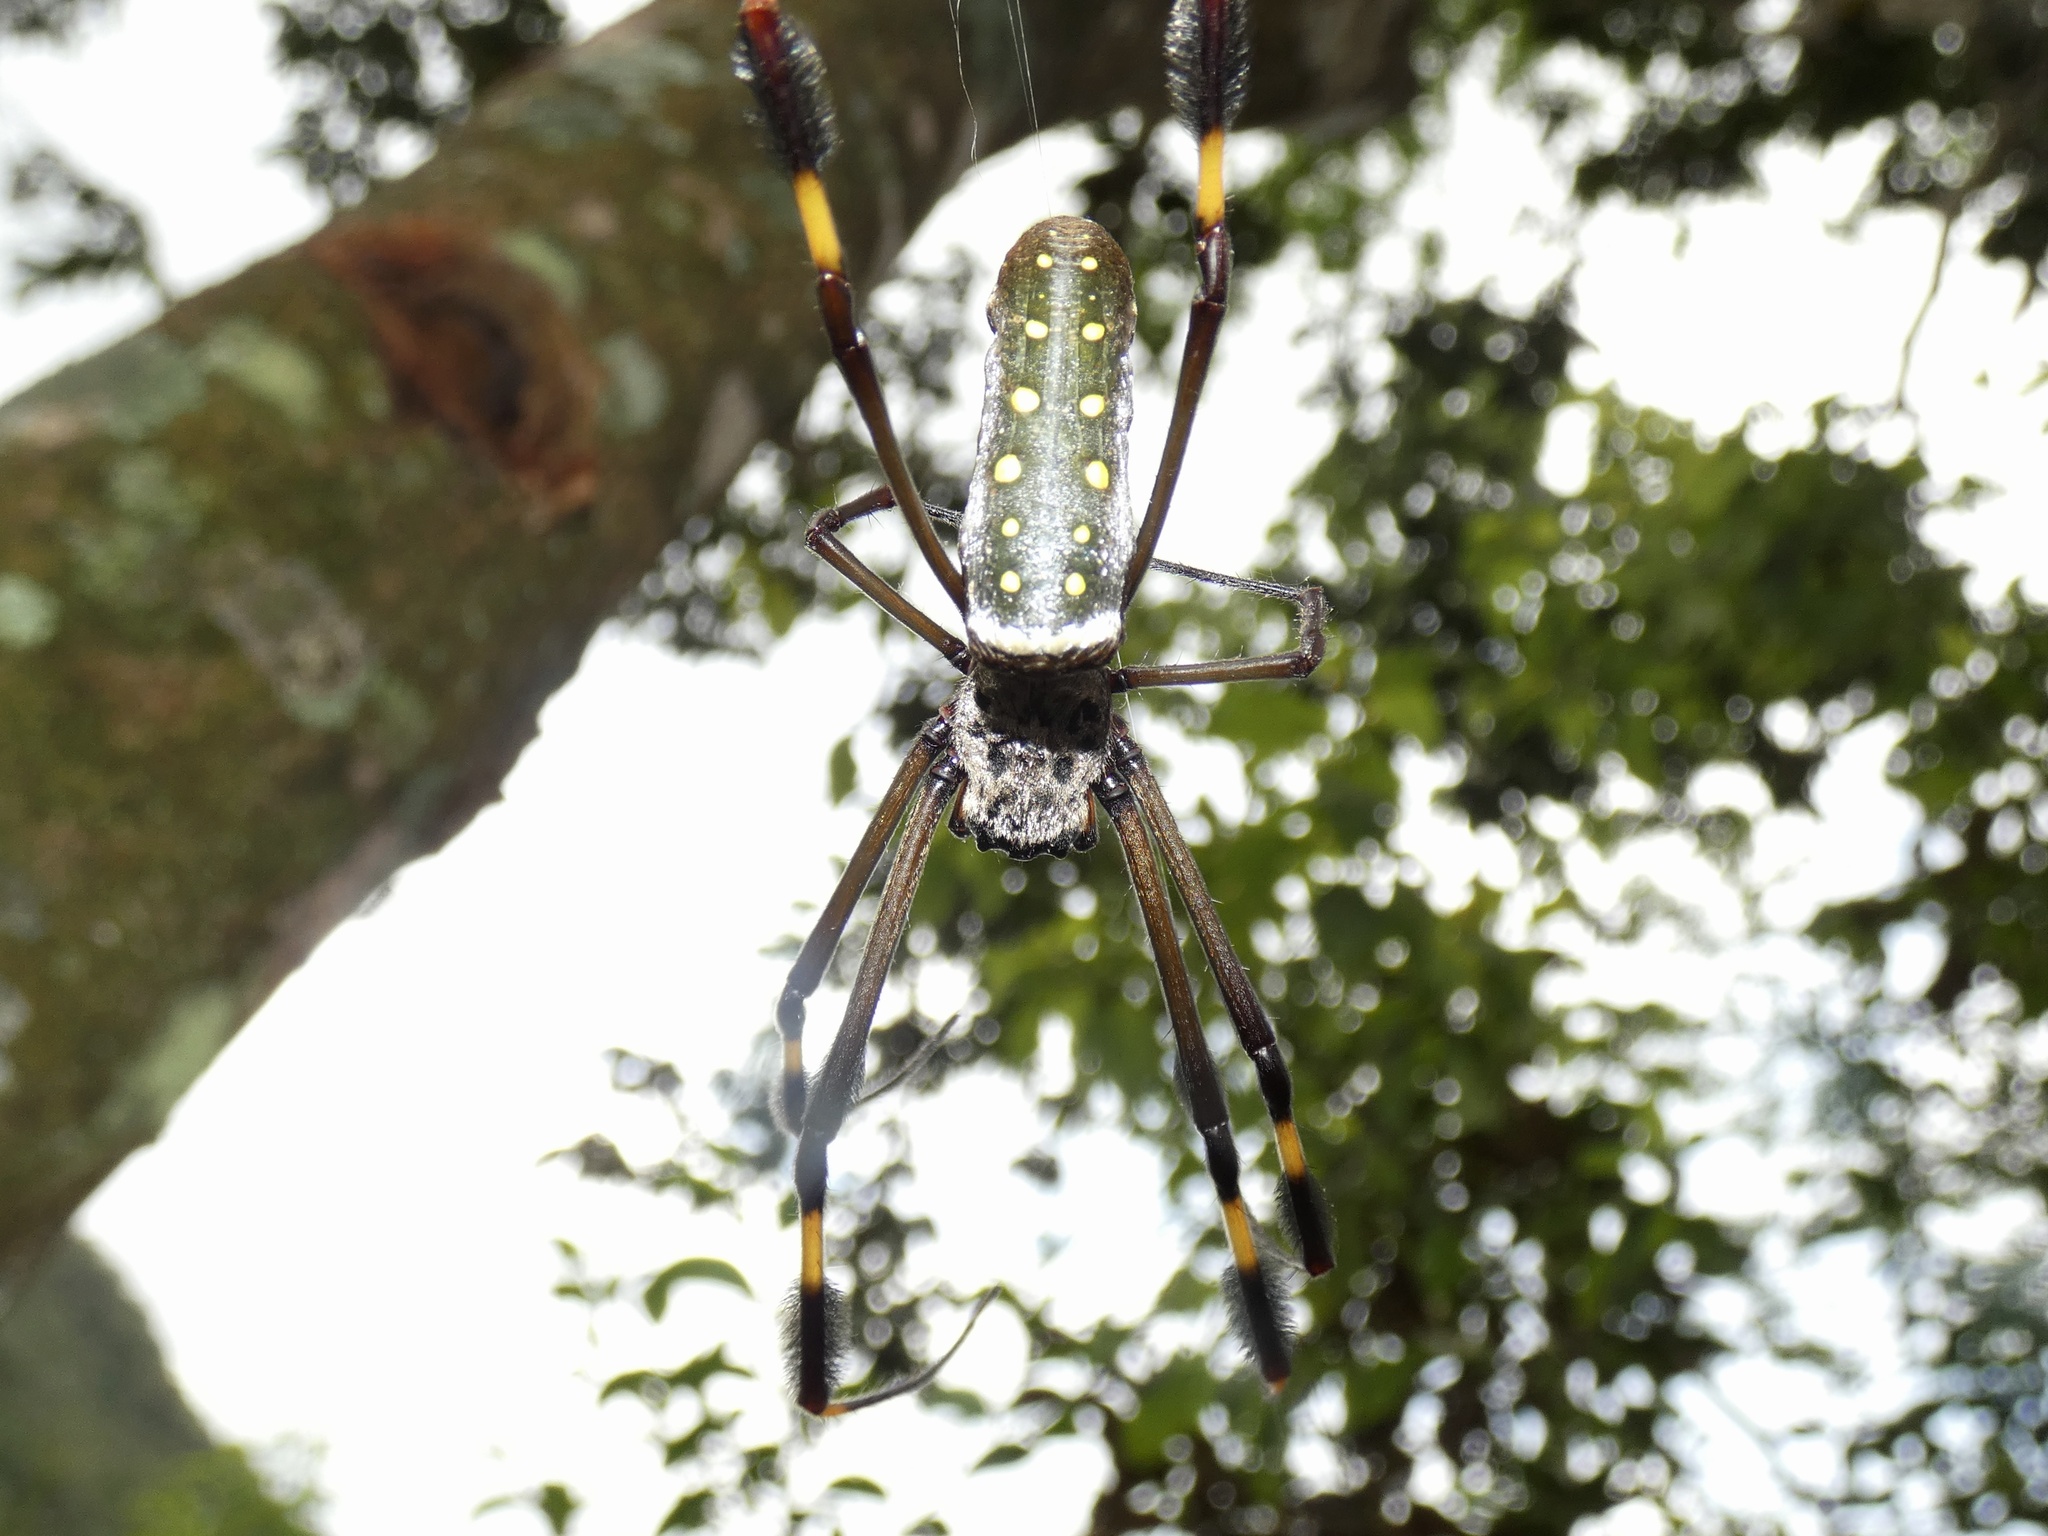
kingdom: Animalia
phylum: Arthropoda
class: Arachnida
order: Araneae
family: Araneidae
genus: Trichonephila
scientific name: Trichonephila clavipes
